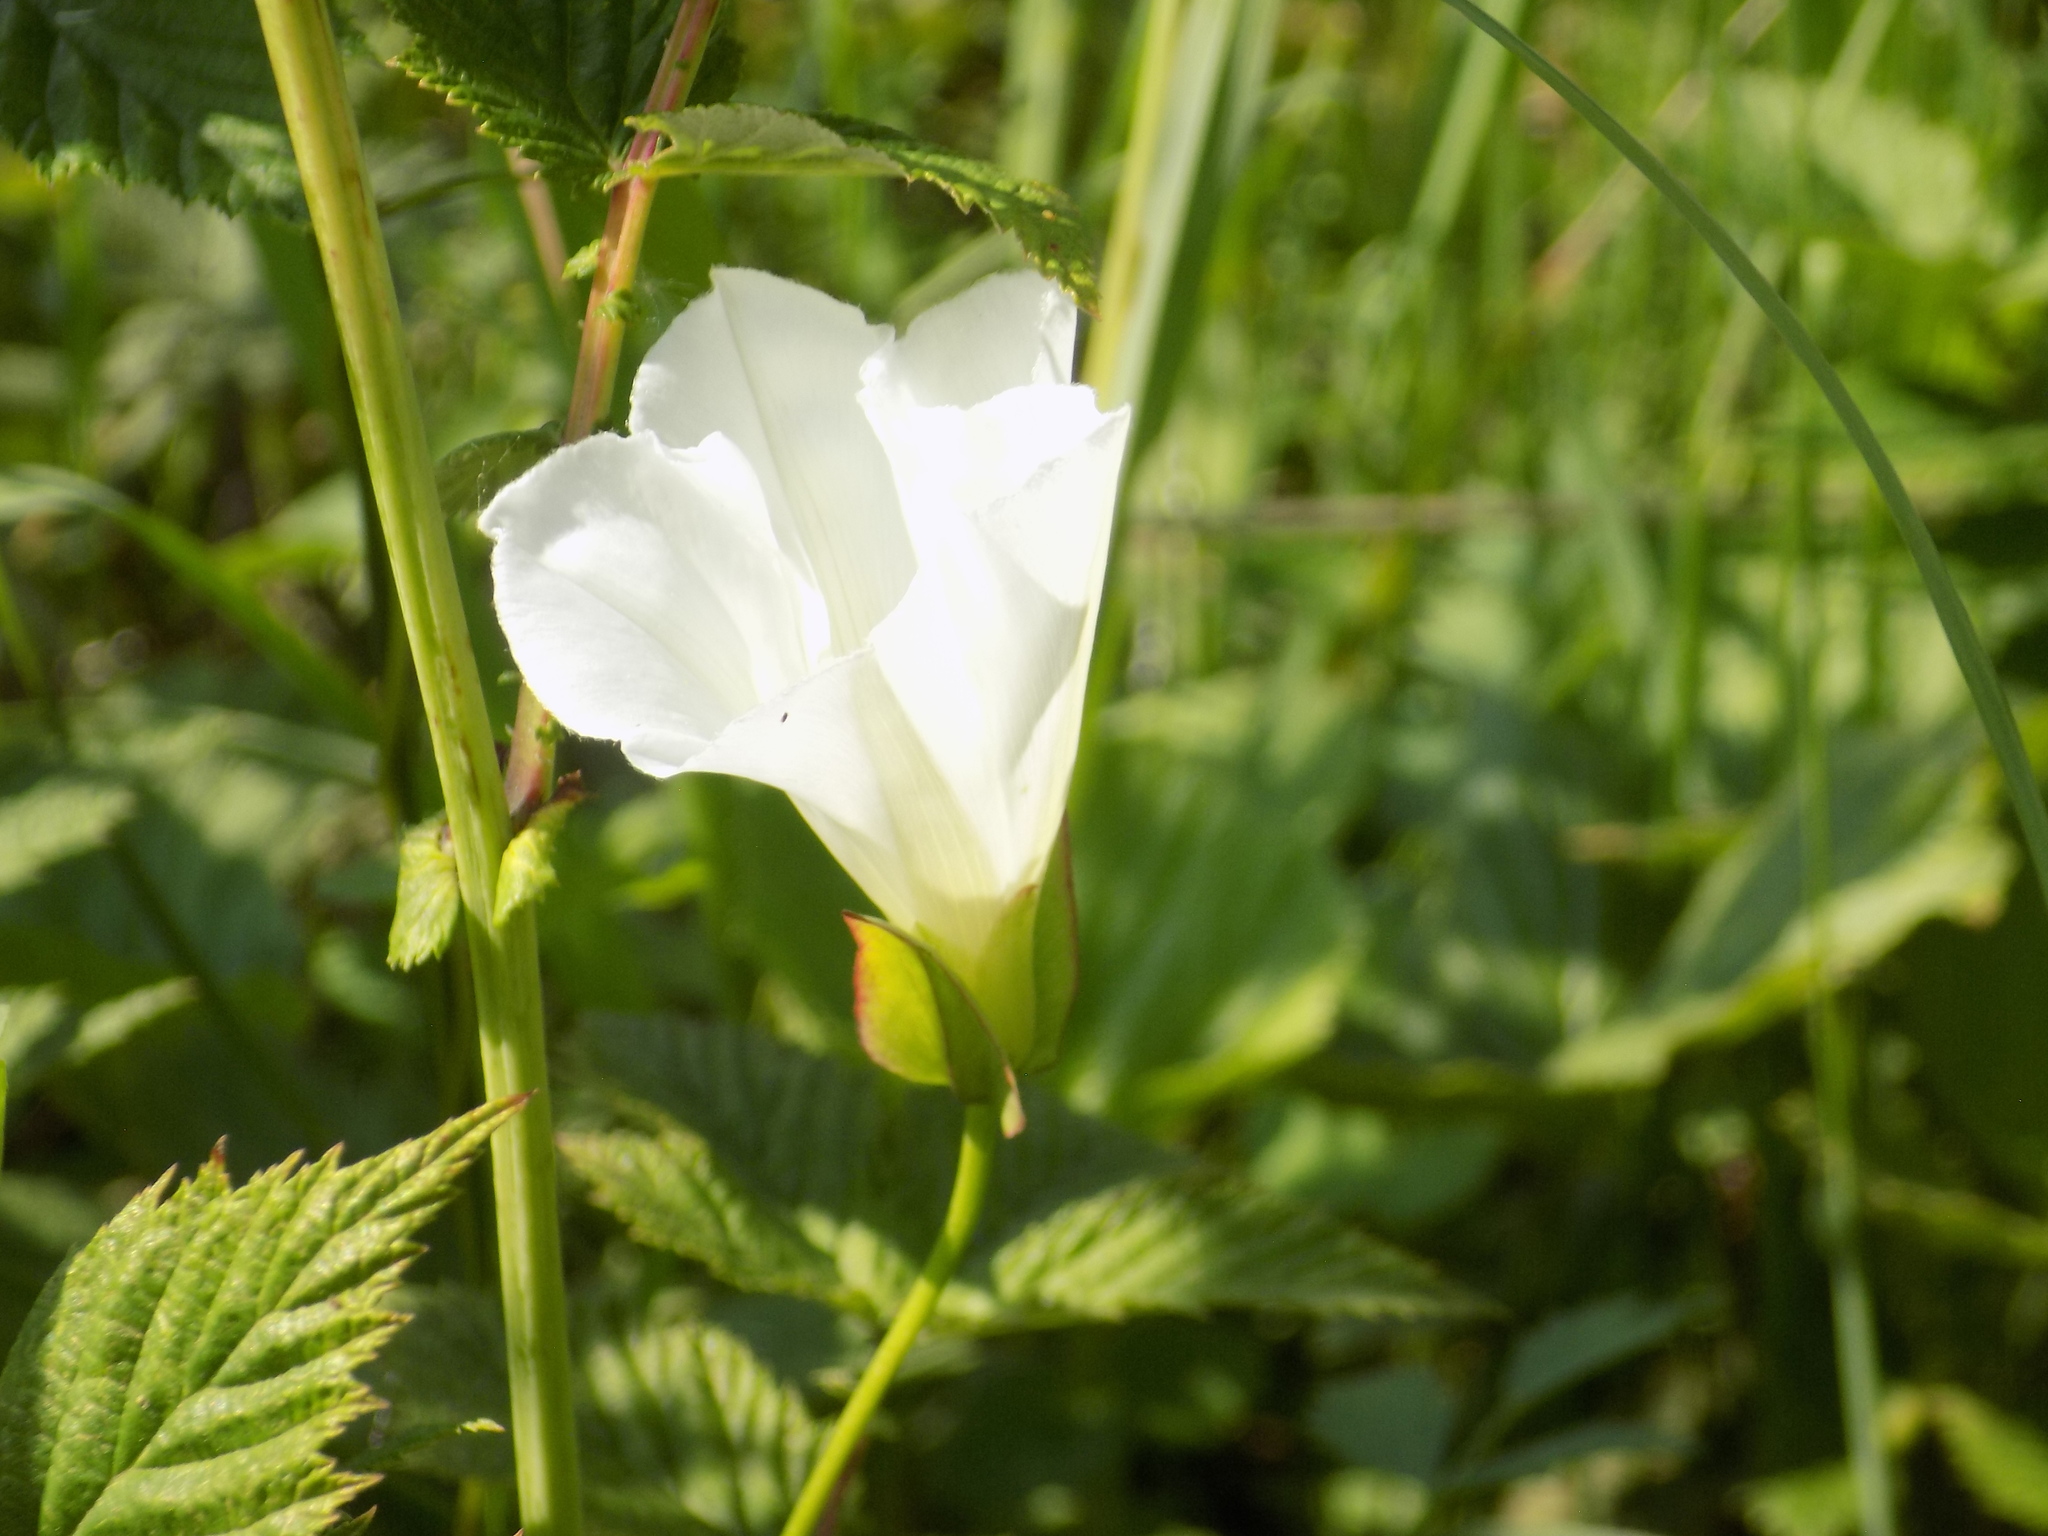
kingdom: Plantae
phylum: Tracheophyta
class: Magnoliopsida
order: Solanales
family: Convolvulaceae
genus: Calystegia
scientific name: Calystegia sepium
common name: Hedge bindweed
